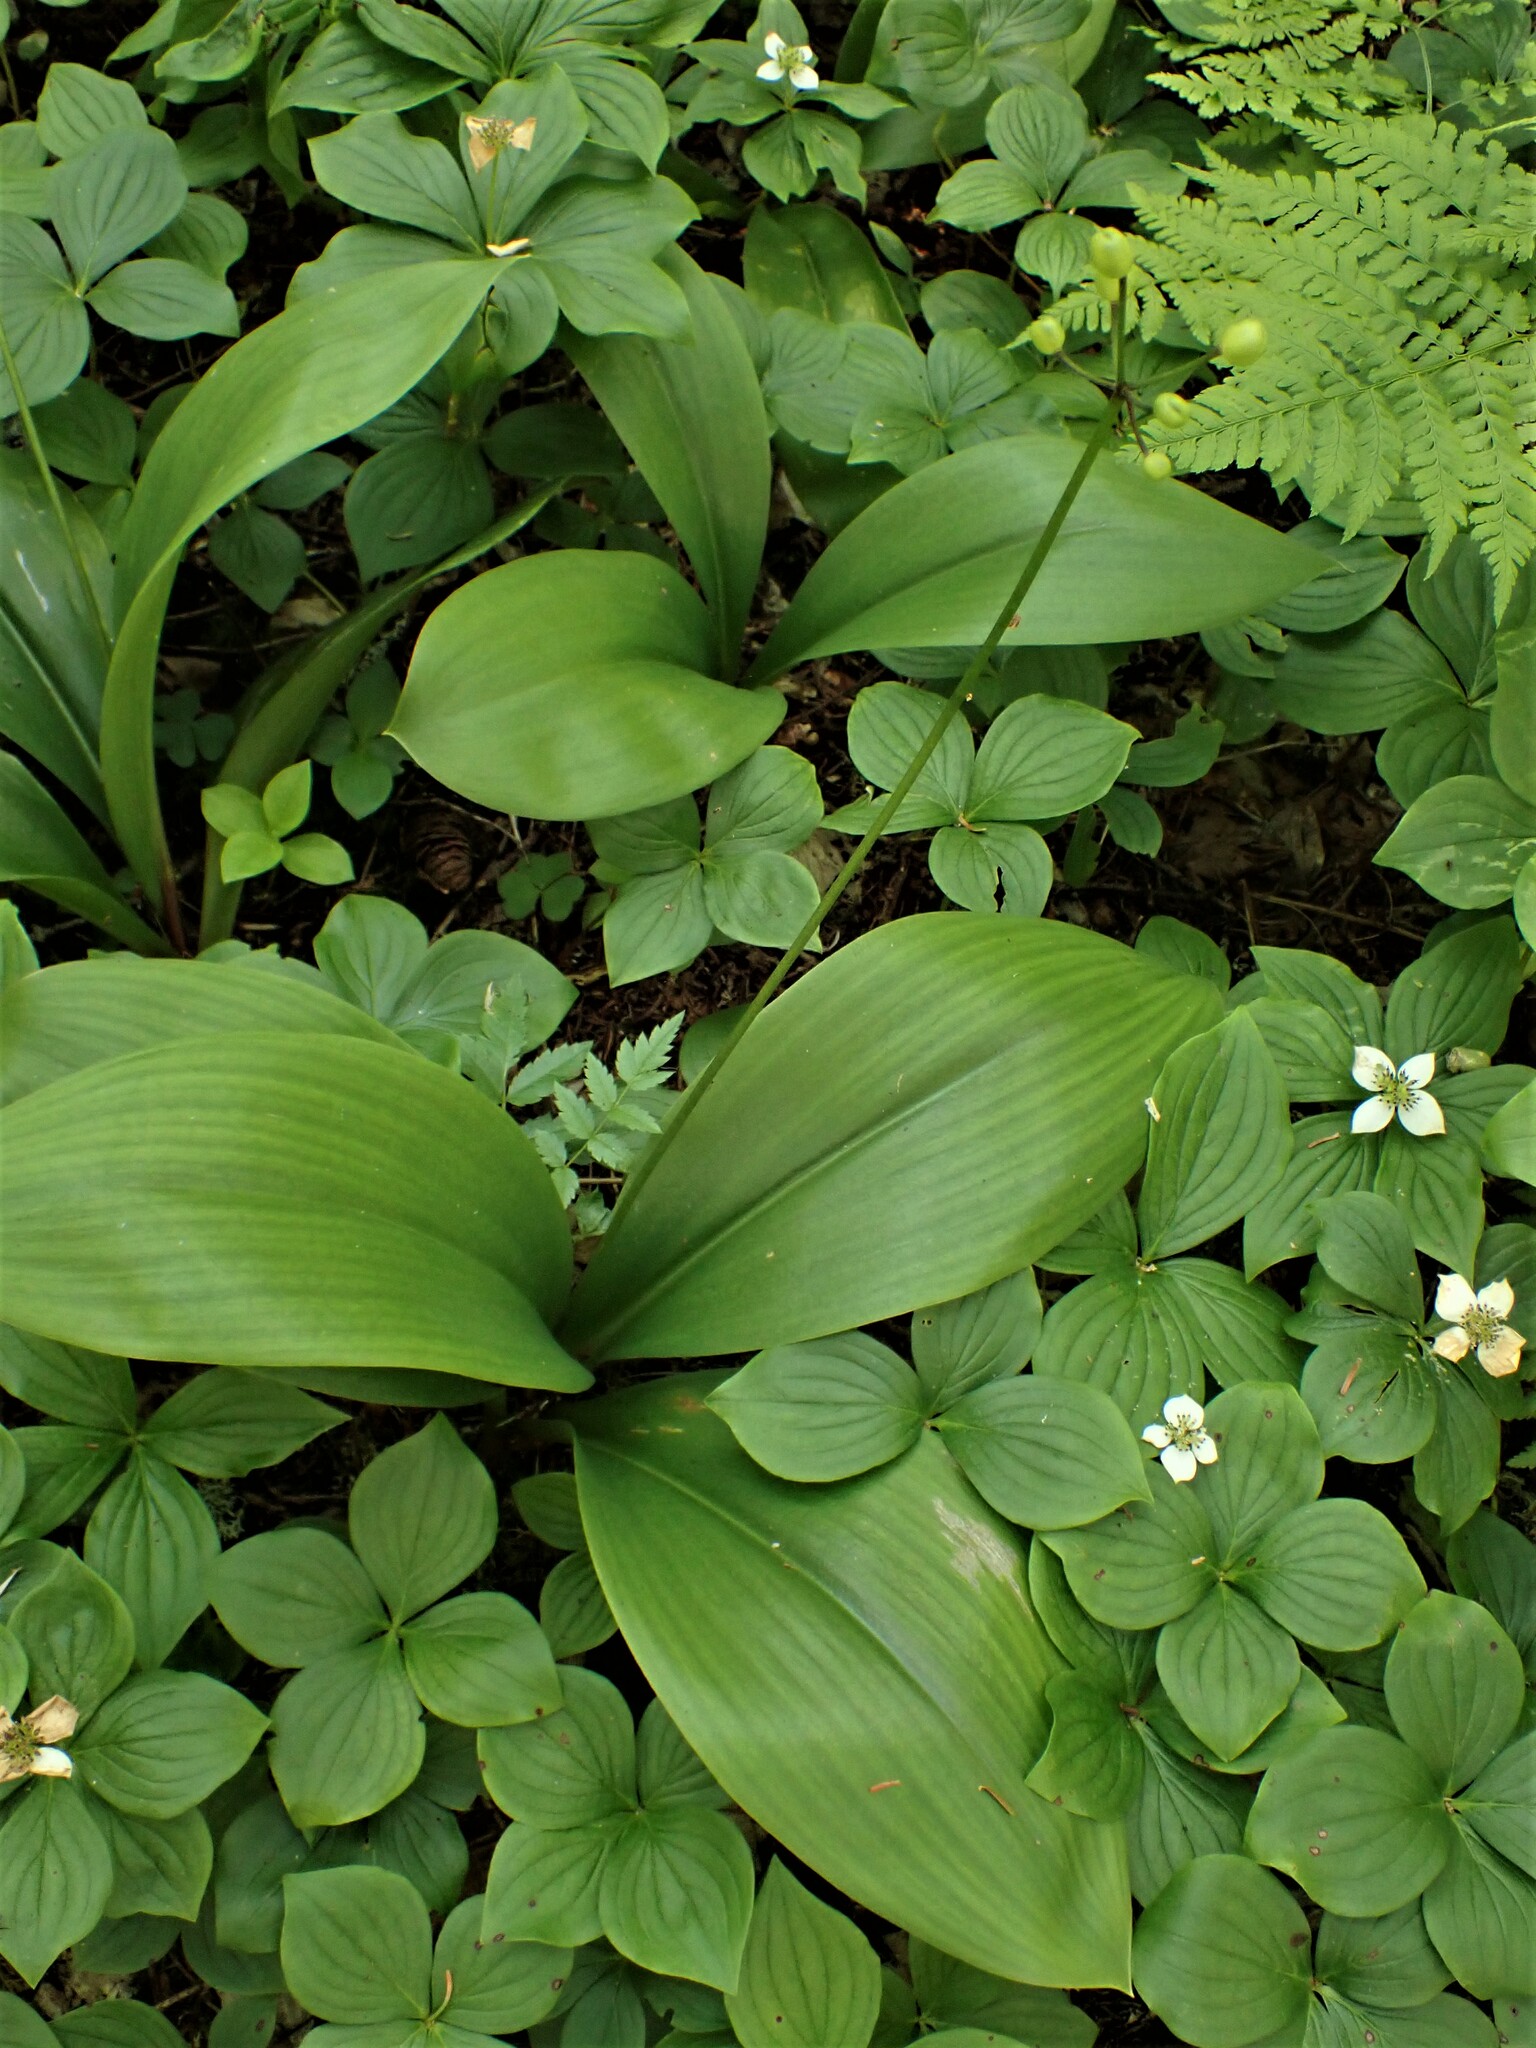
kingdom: Plantae
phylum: Tracheophyta
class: Liliopsida
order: Liliales
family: Liliaceae
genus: Clintonia
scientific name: Clintonia borealis
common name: Yellow clintonia
